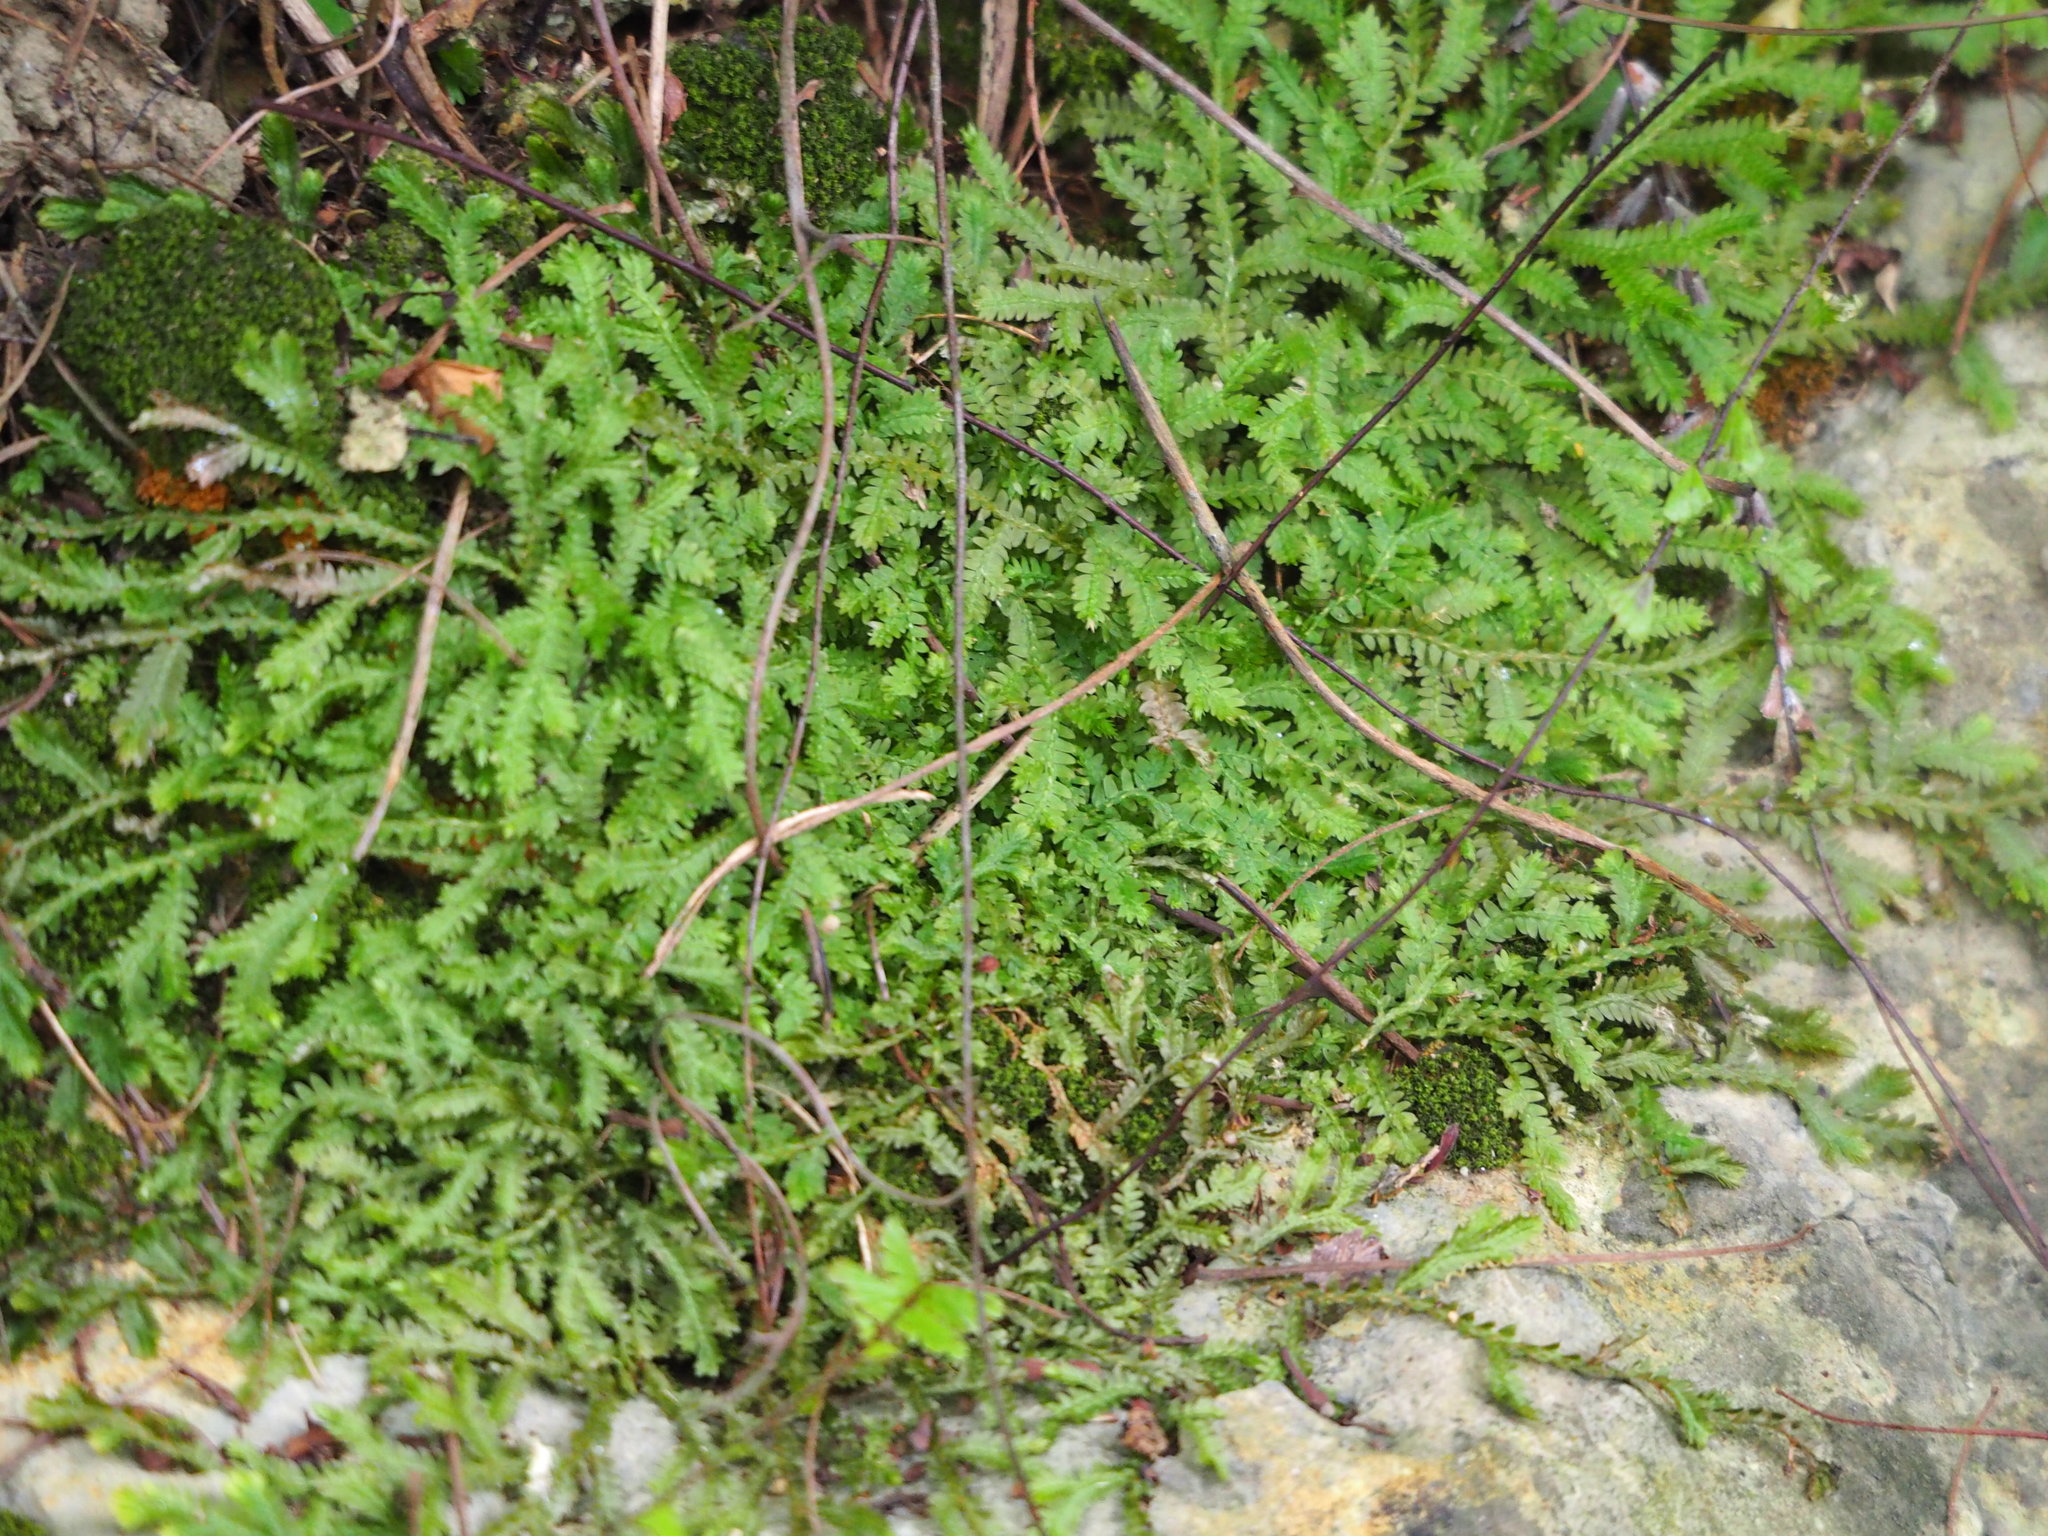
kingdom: Plantae
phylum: Tracheophyta
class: Lycopodiopsida
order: Selaginellales
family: Selaginellaceae
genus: Selaginella
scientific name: Selaginella repanda
